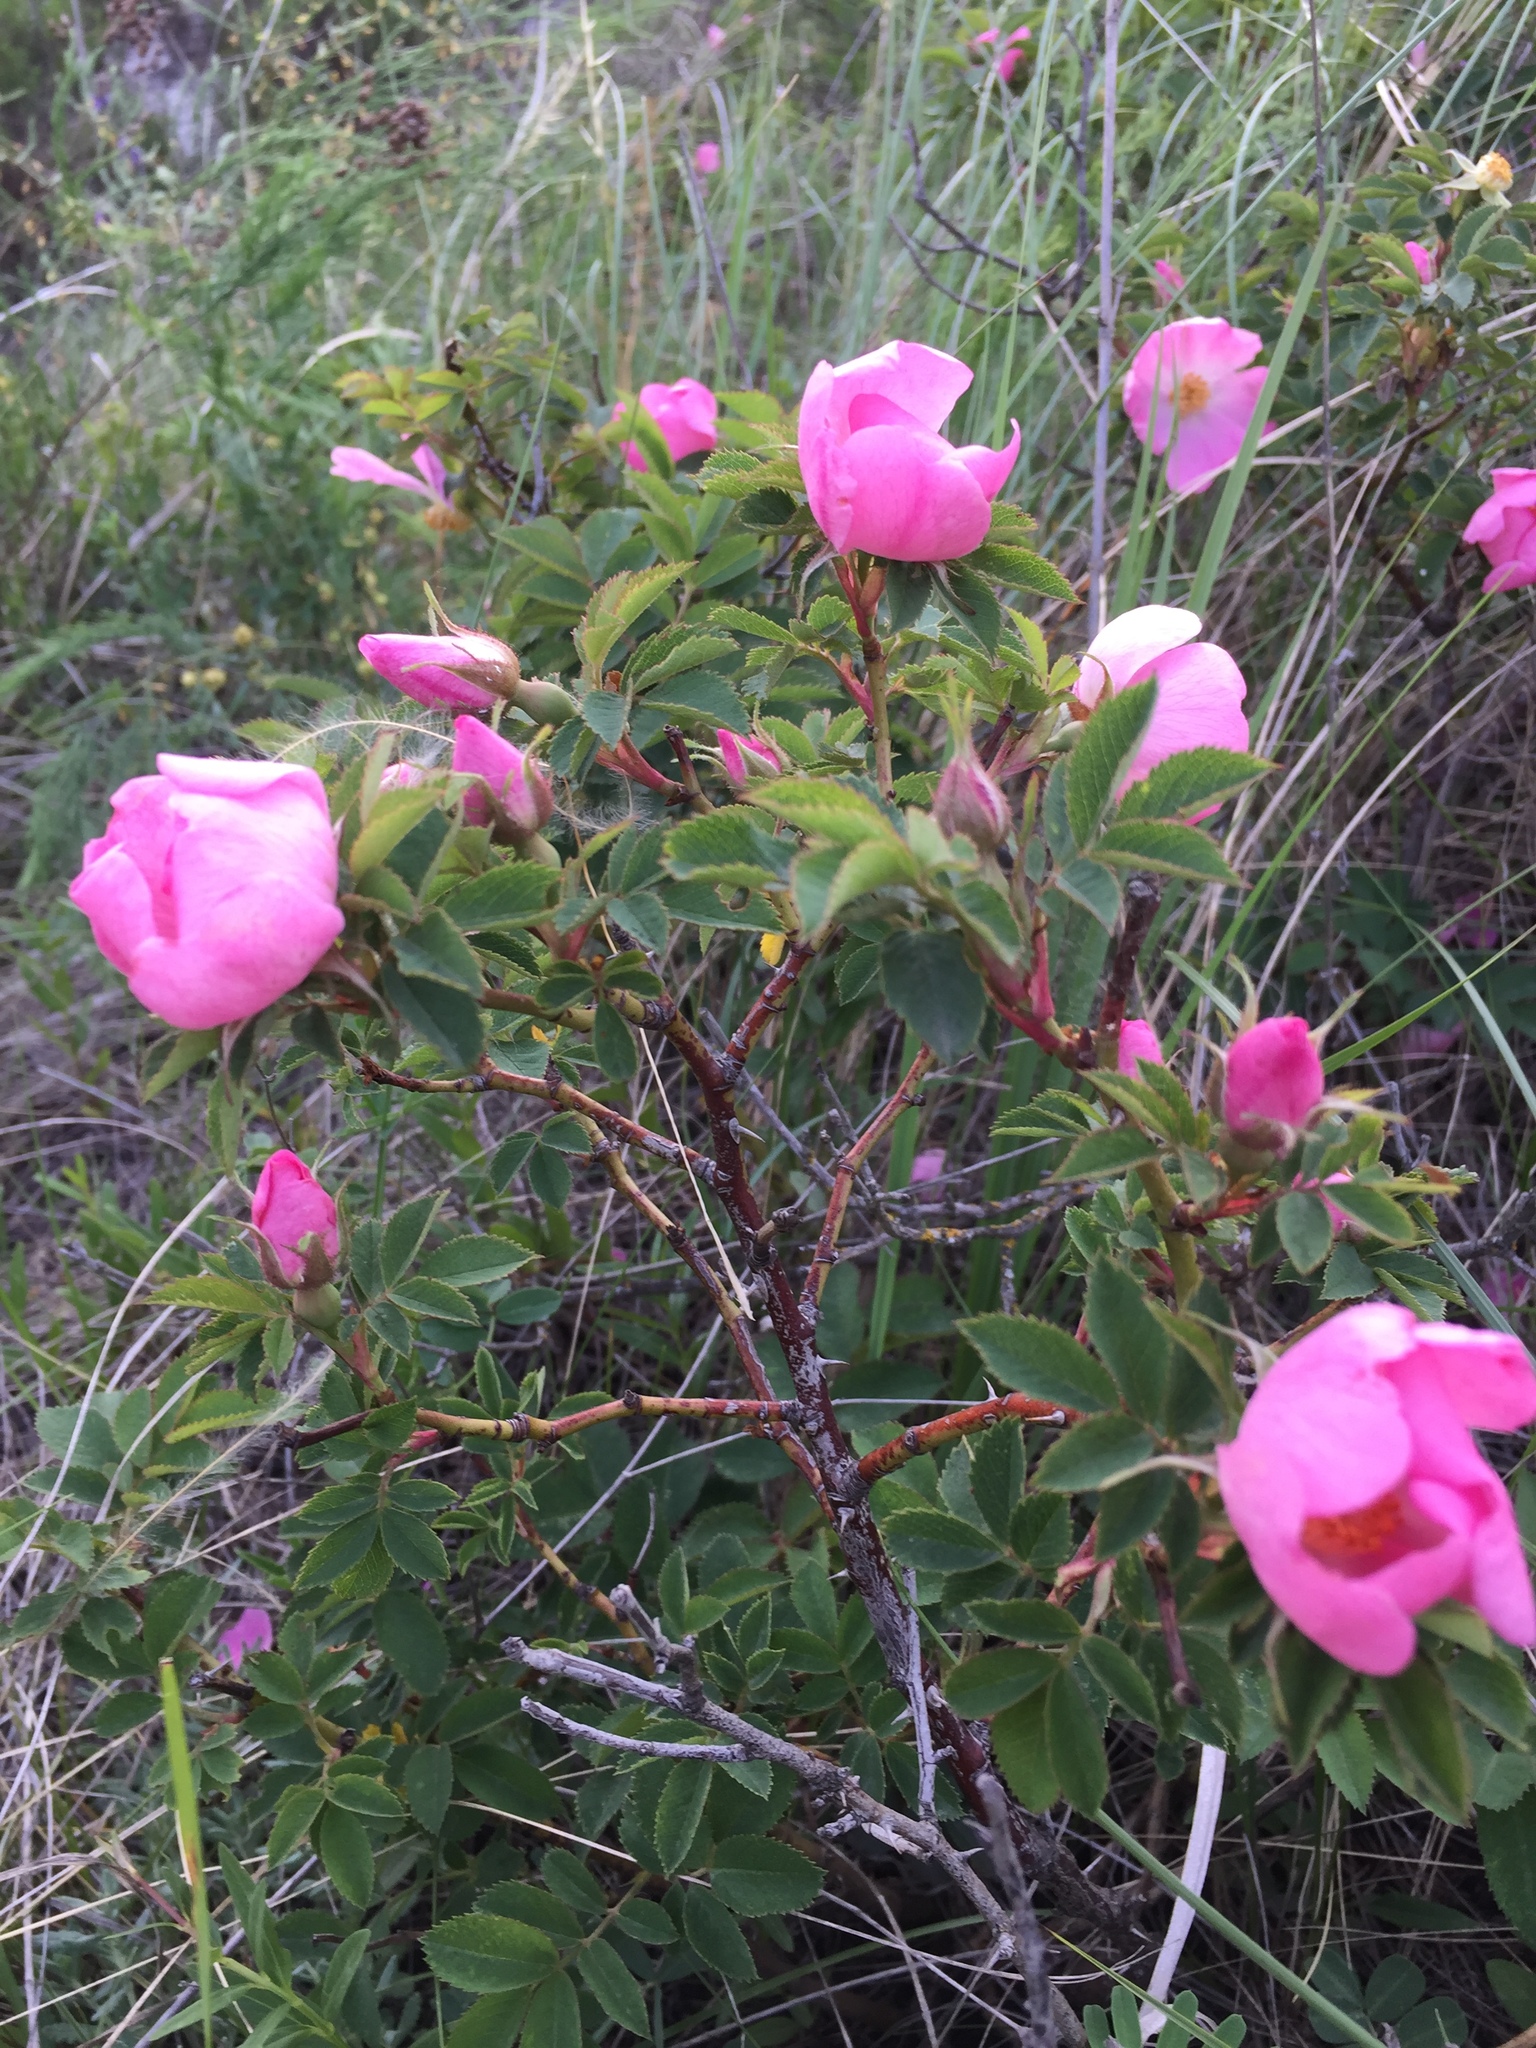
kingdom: Plantae
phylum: Tracheophyta
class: Magnoliopsida
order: Rosales
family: Rosaceae
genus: Rosa
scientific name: Rosa
